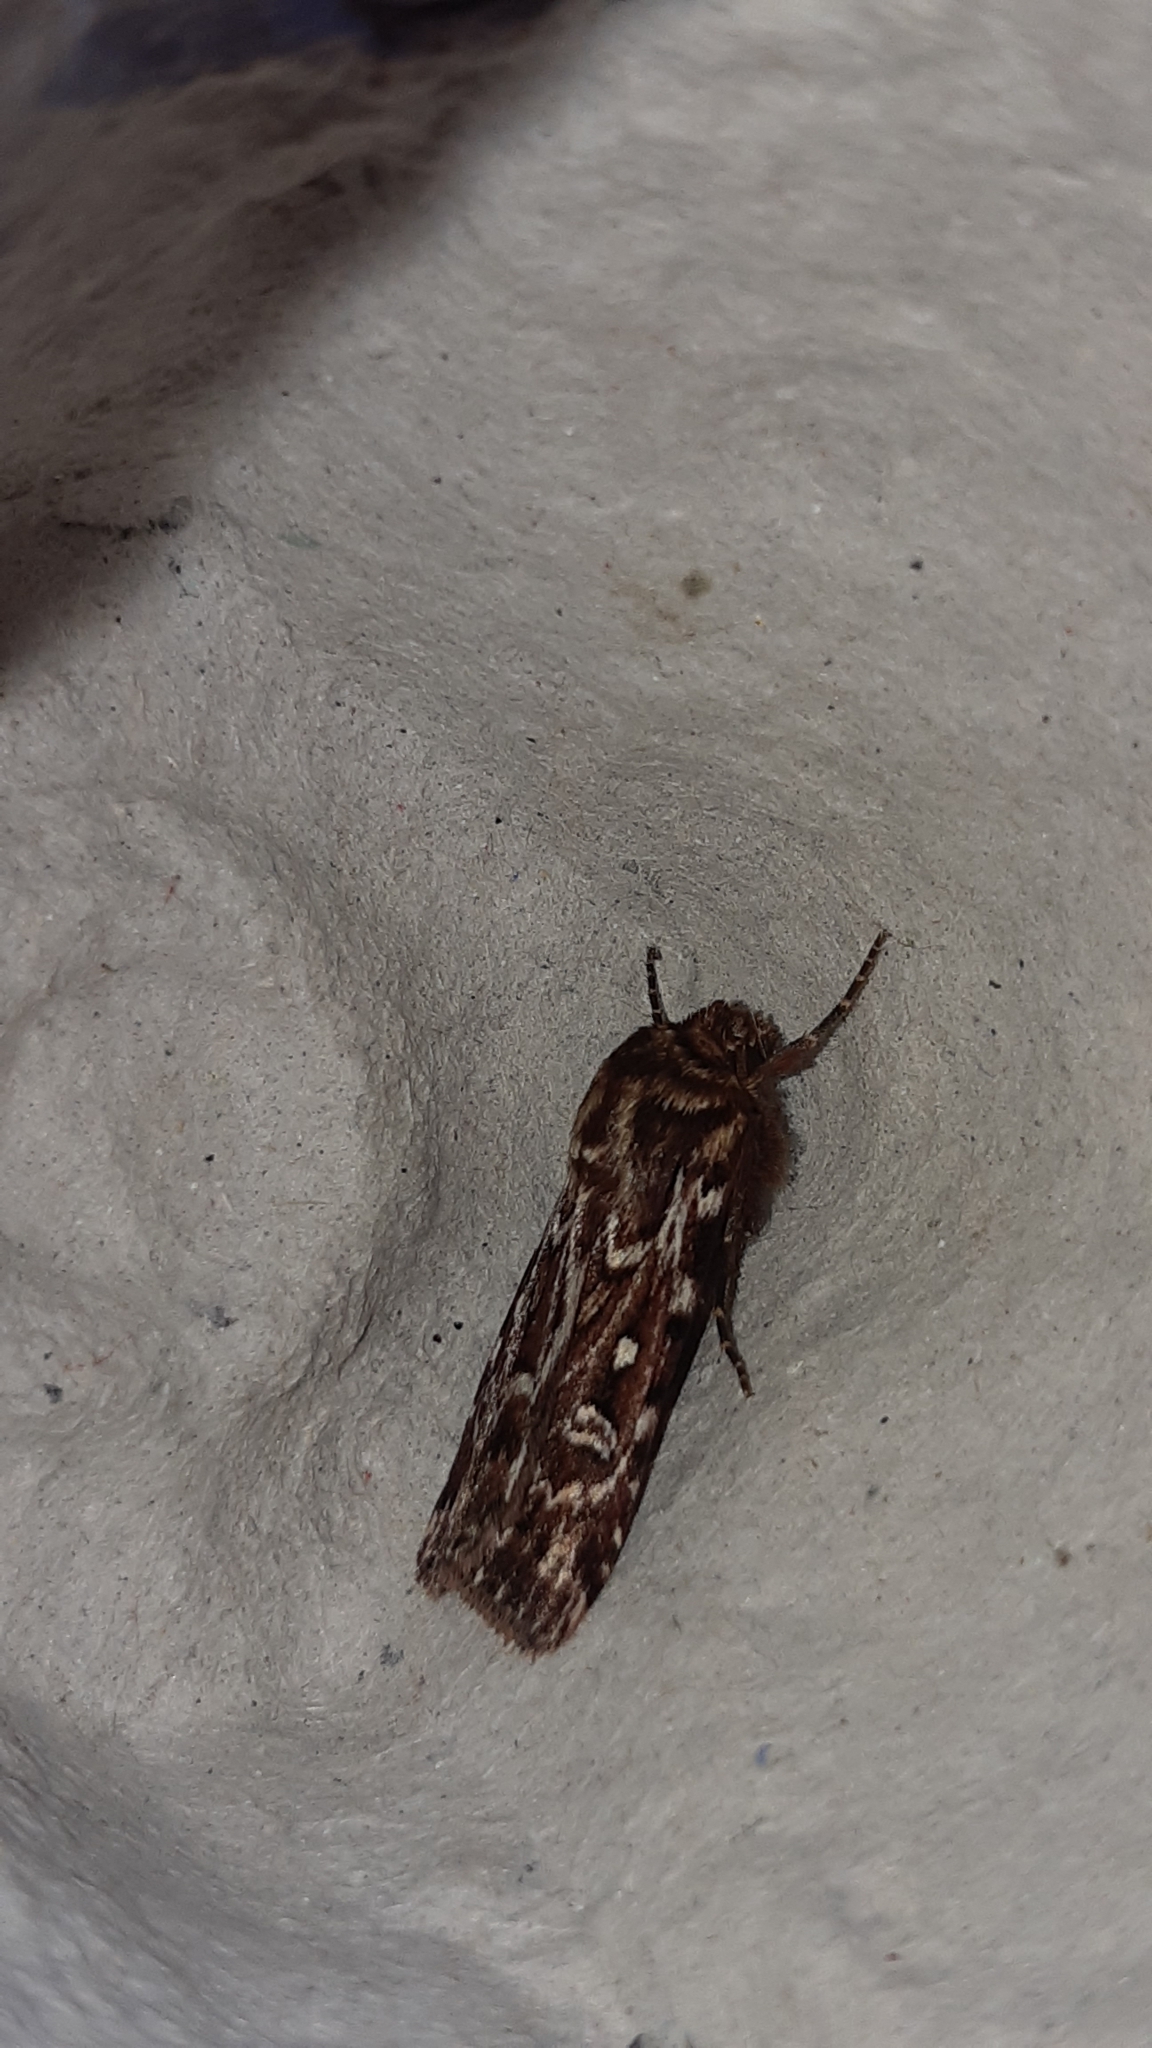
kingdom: Animalia
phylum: Arthropoda
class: Insecta
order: Lepidoptera
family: Noctuidae
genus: Lycophotia
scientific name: Lycophotia porphyrea
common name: True lover's knot
